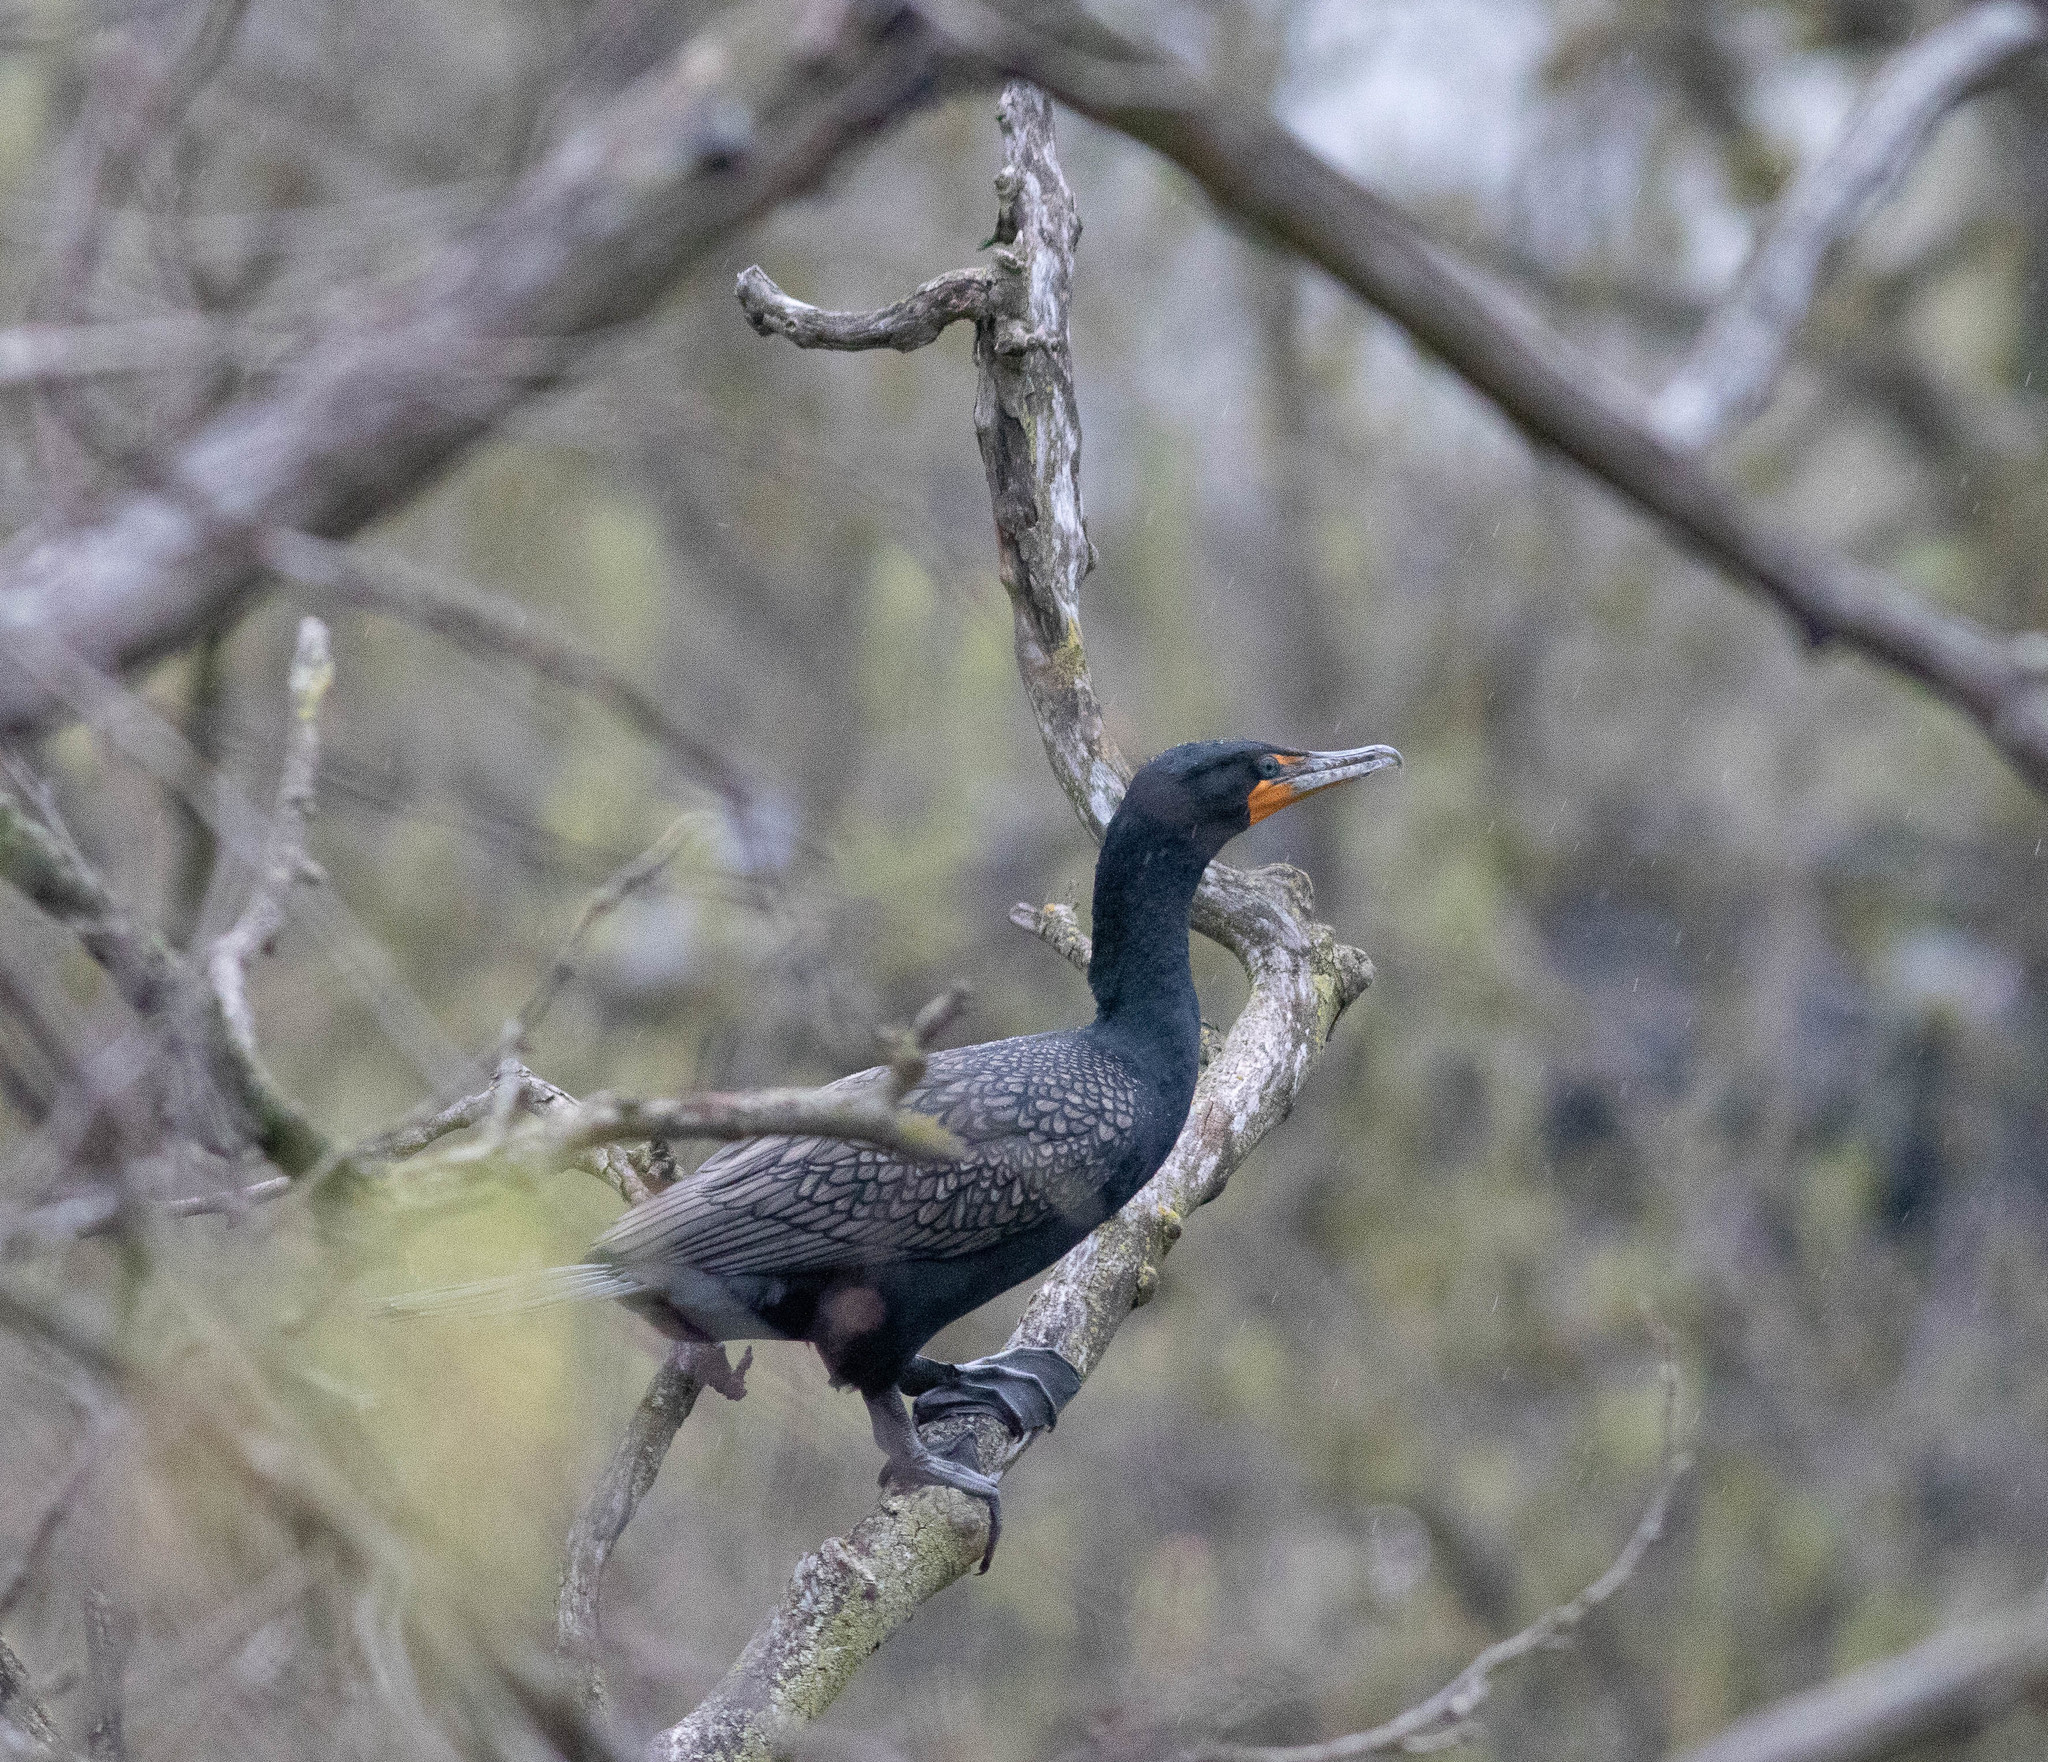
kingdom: Animalia
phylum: Chordata
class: Aves
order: Suliformes
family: Phalacrocoracidae
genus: Phalacrocorax
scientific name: Phalacrocorax auritus
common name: Double-crested cormorant
